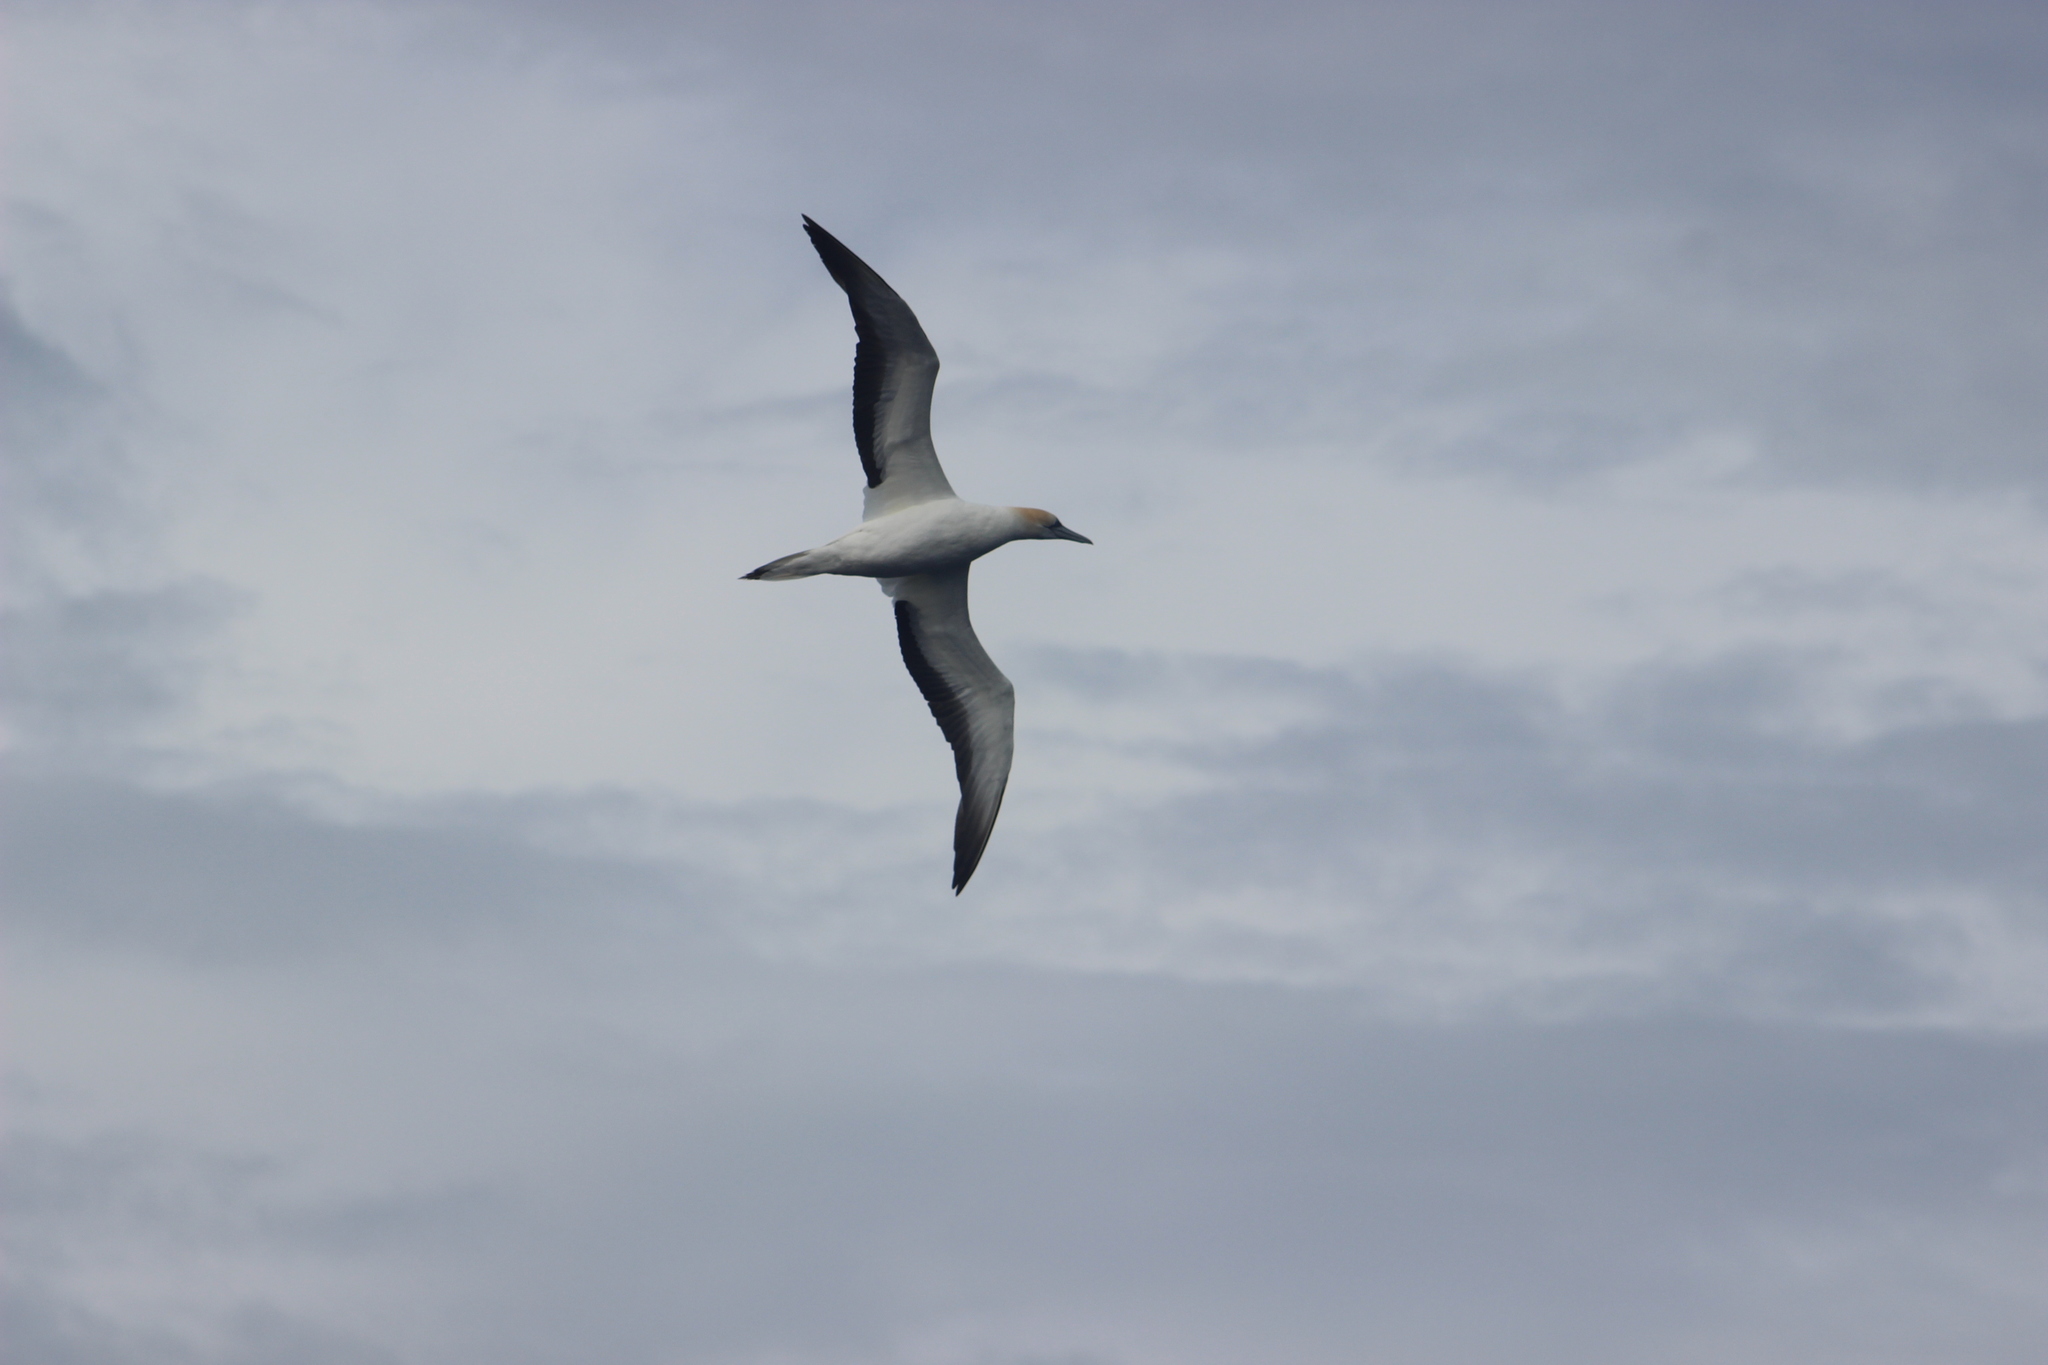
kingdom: Animalia
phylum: Chordata
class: Aves
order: Suliformes
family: Sulidae
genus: Morus
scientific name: Morus serrator
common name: Australasian gannet
